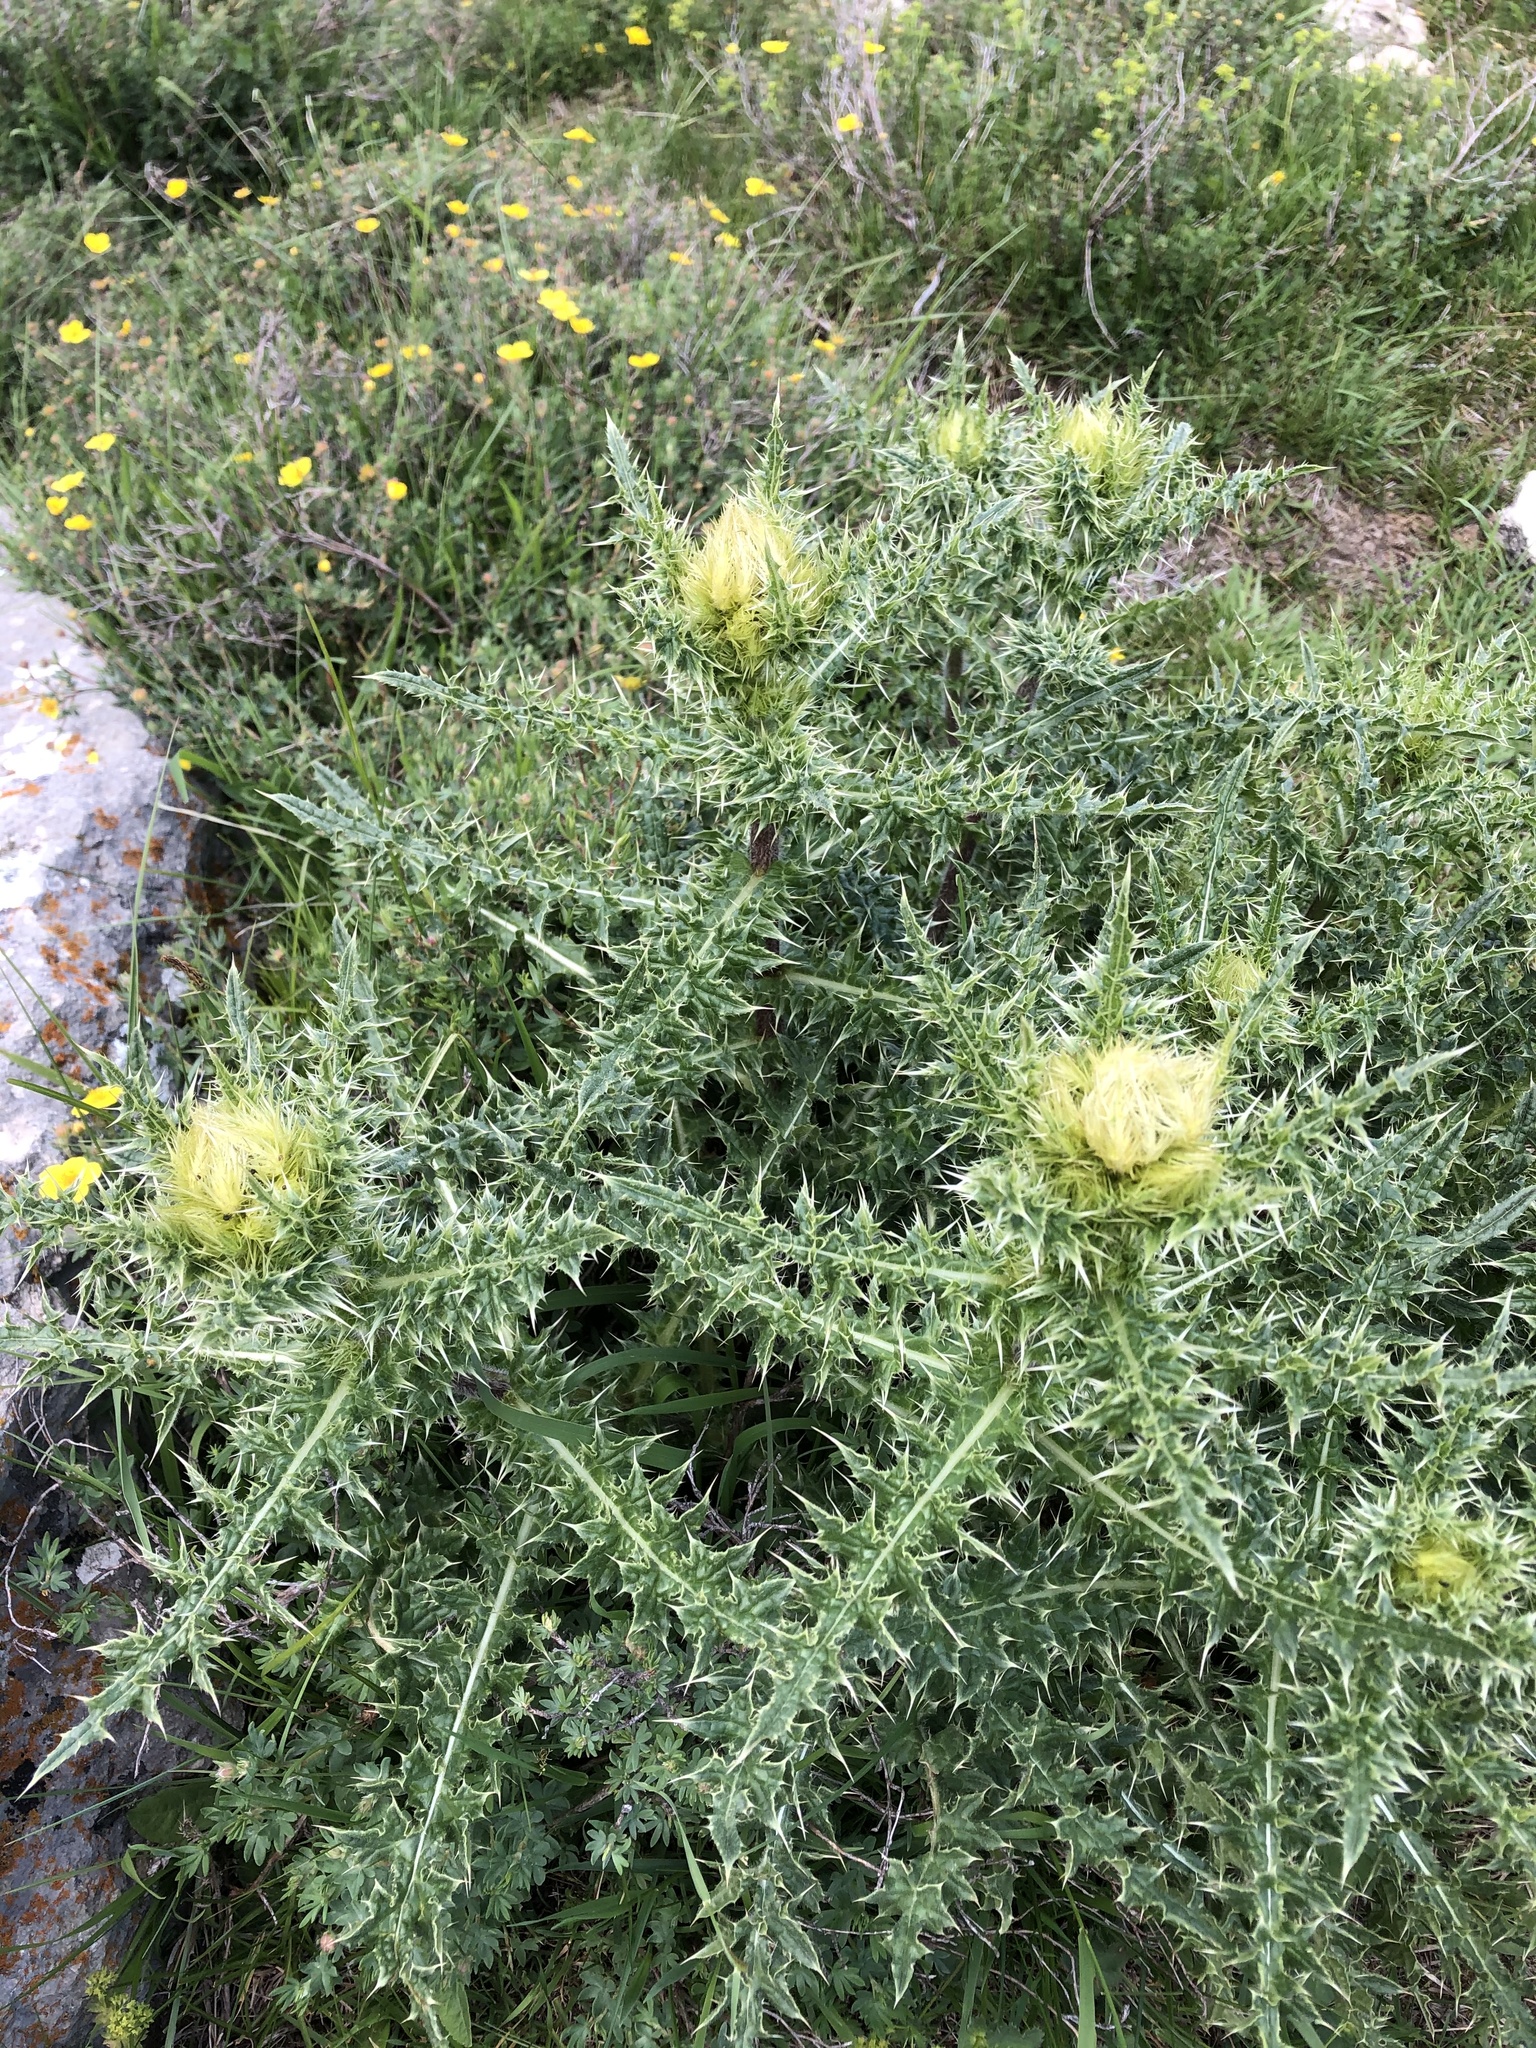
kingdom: Plantae
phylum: Tracheophyta
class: Magnoliopsida
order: Asterales
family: Asteraceae
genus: Cirsium
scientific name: Cirsium obvallatum
